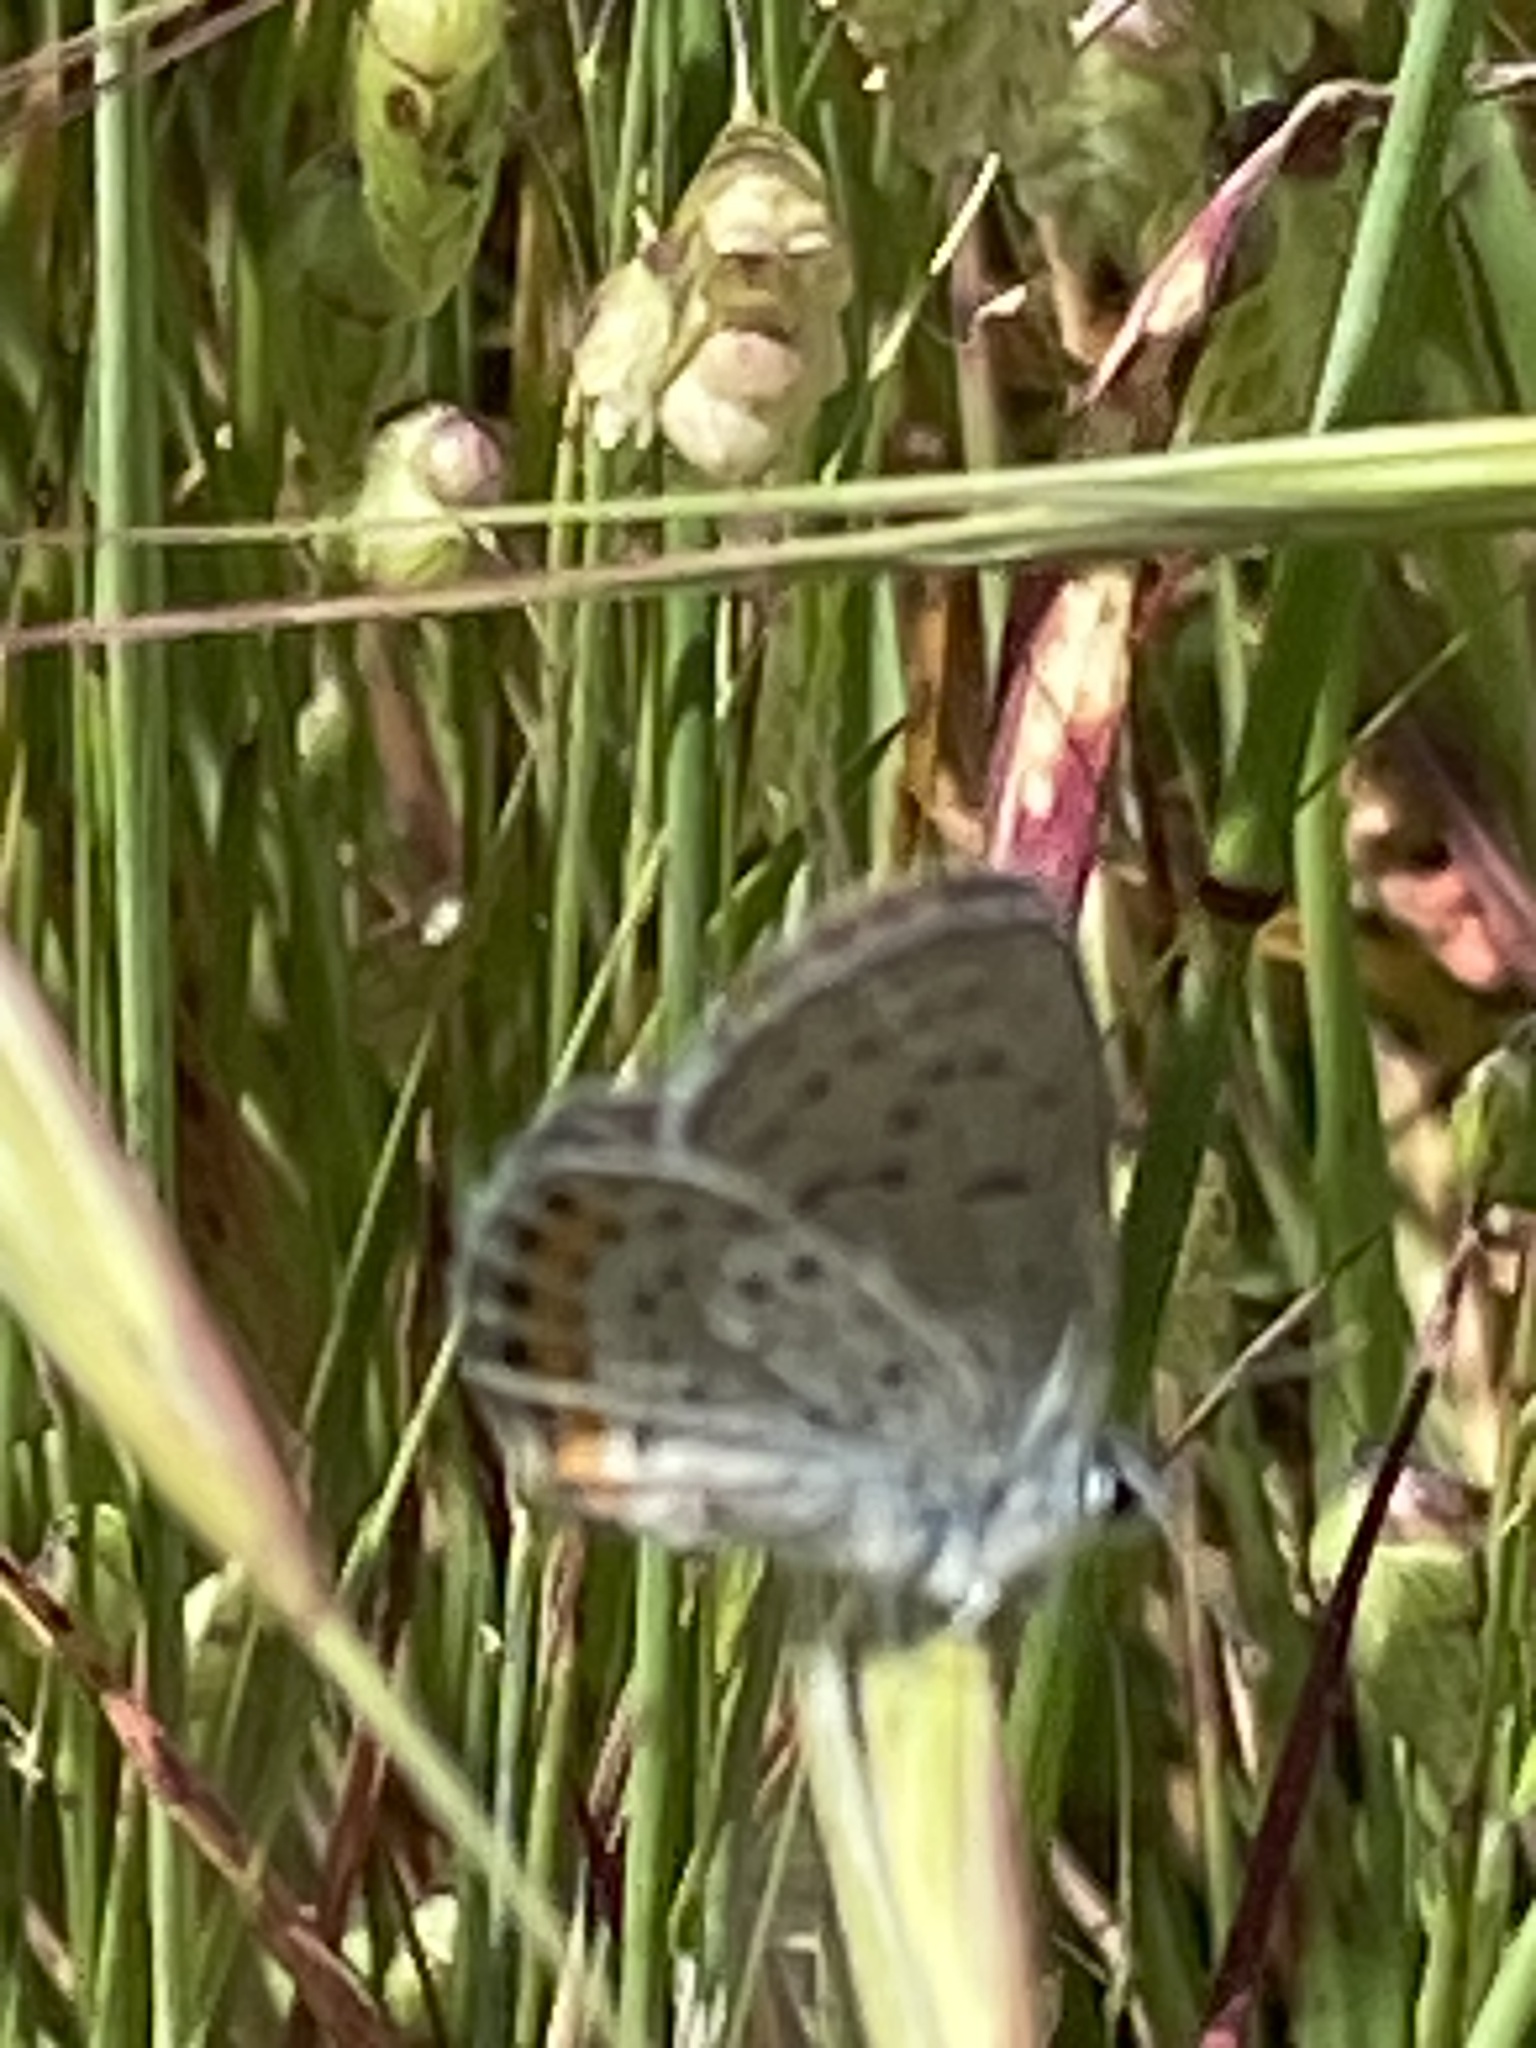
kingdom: Animalia
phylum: Arthropoda
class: Insecta
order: Lepidoptera
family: Lycaenidae
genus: Icaricia
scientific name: Icaricia acmon
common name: Acmon blue
